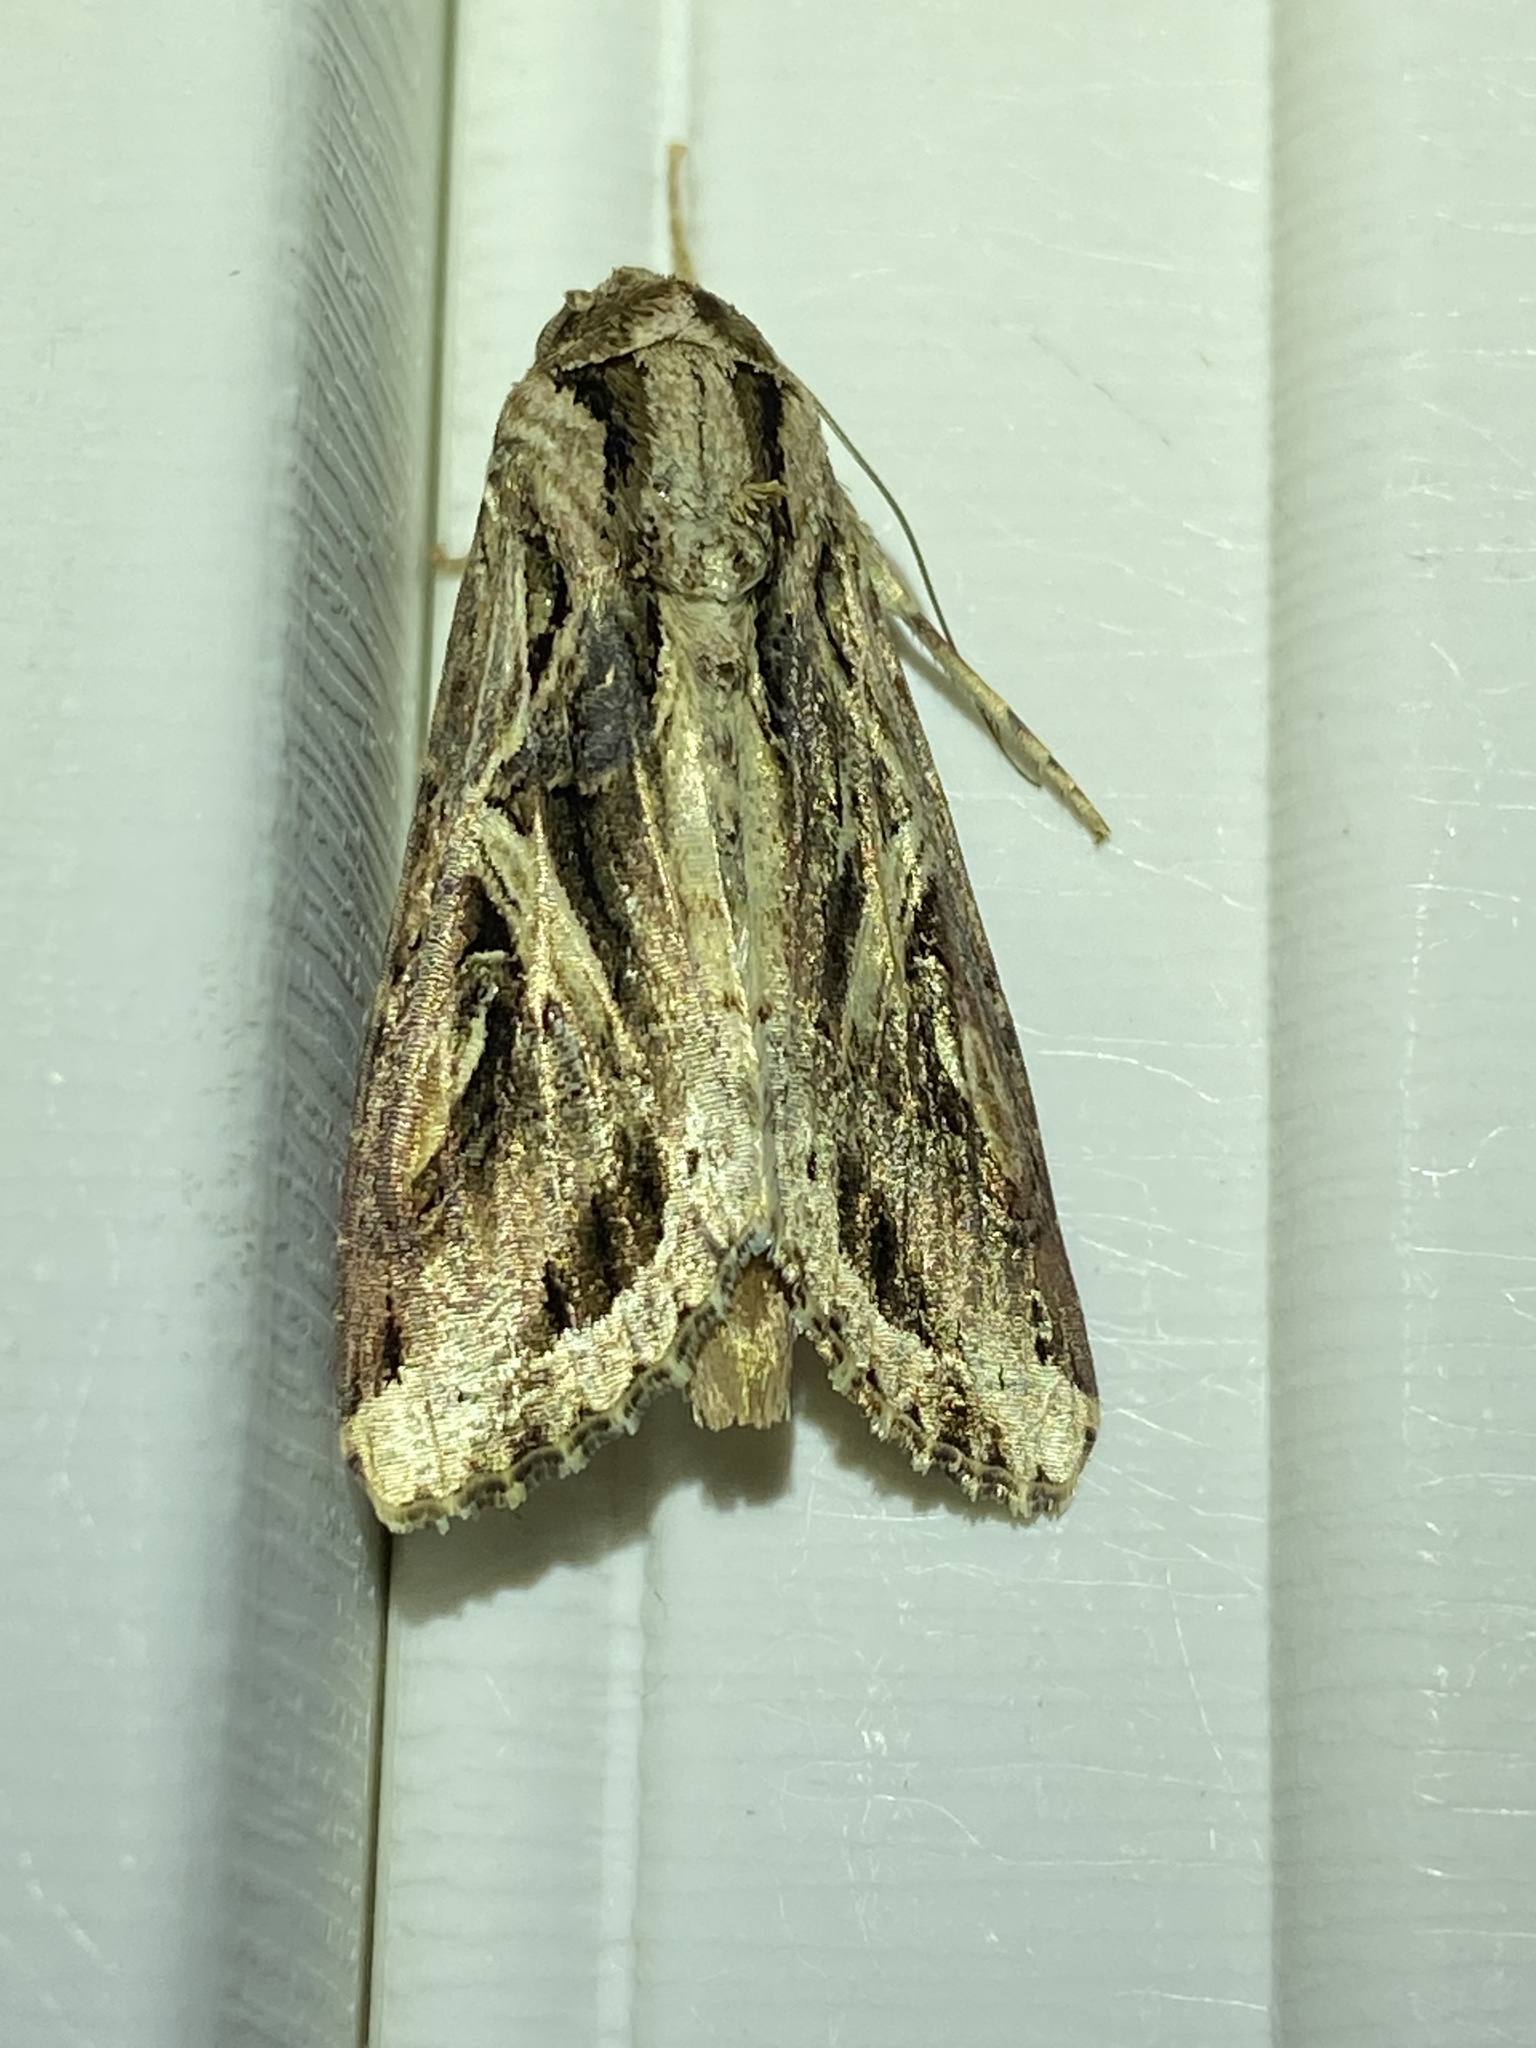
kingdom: Animalia
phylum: Arthropoda
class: Insecta
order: Lepidoptera
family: Noctuidae
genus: Spodoptera
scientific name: Spodoptera dolichos
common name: Sweetpotato armyworm
